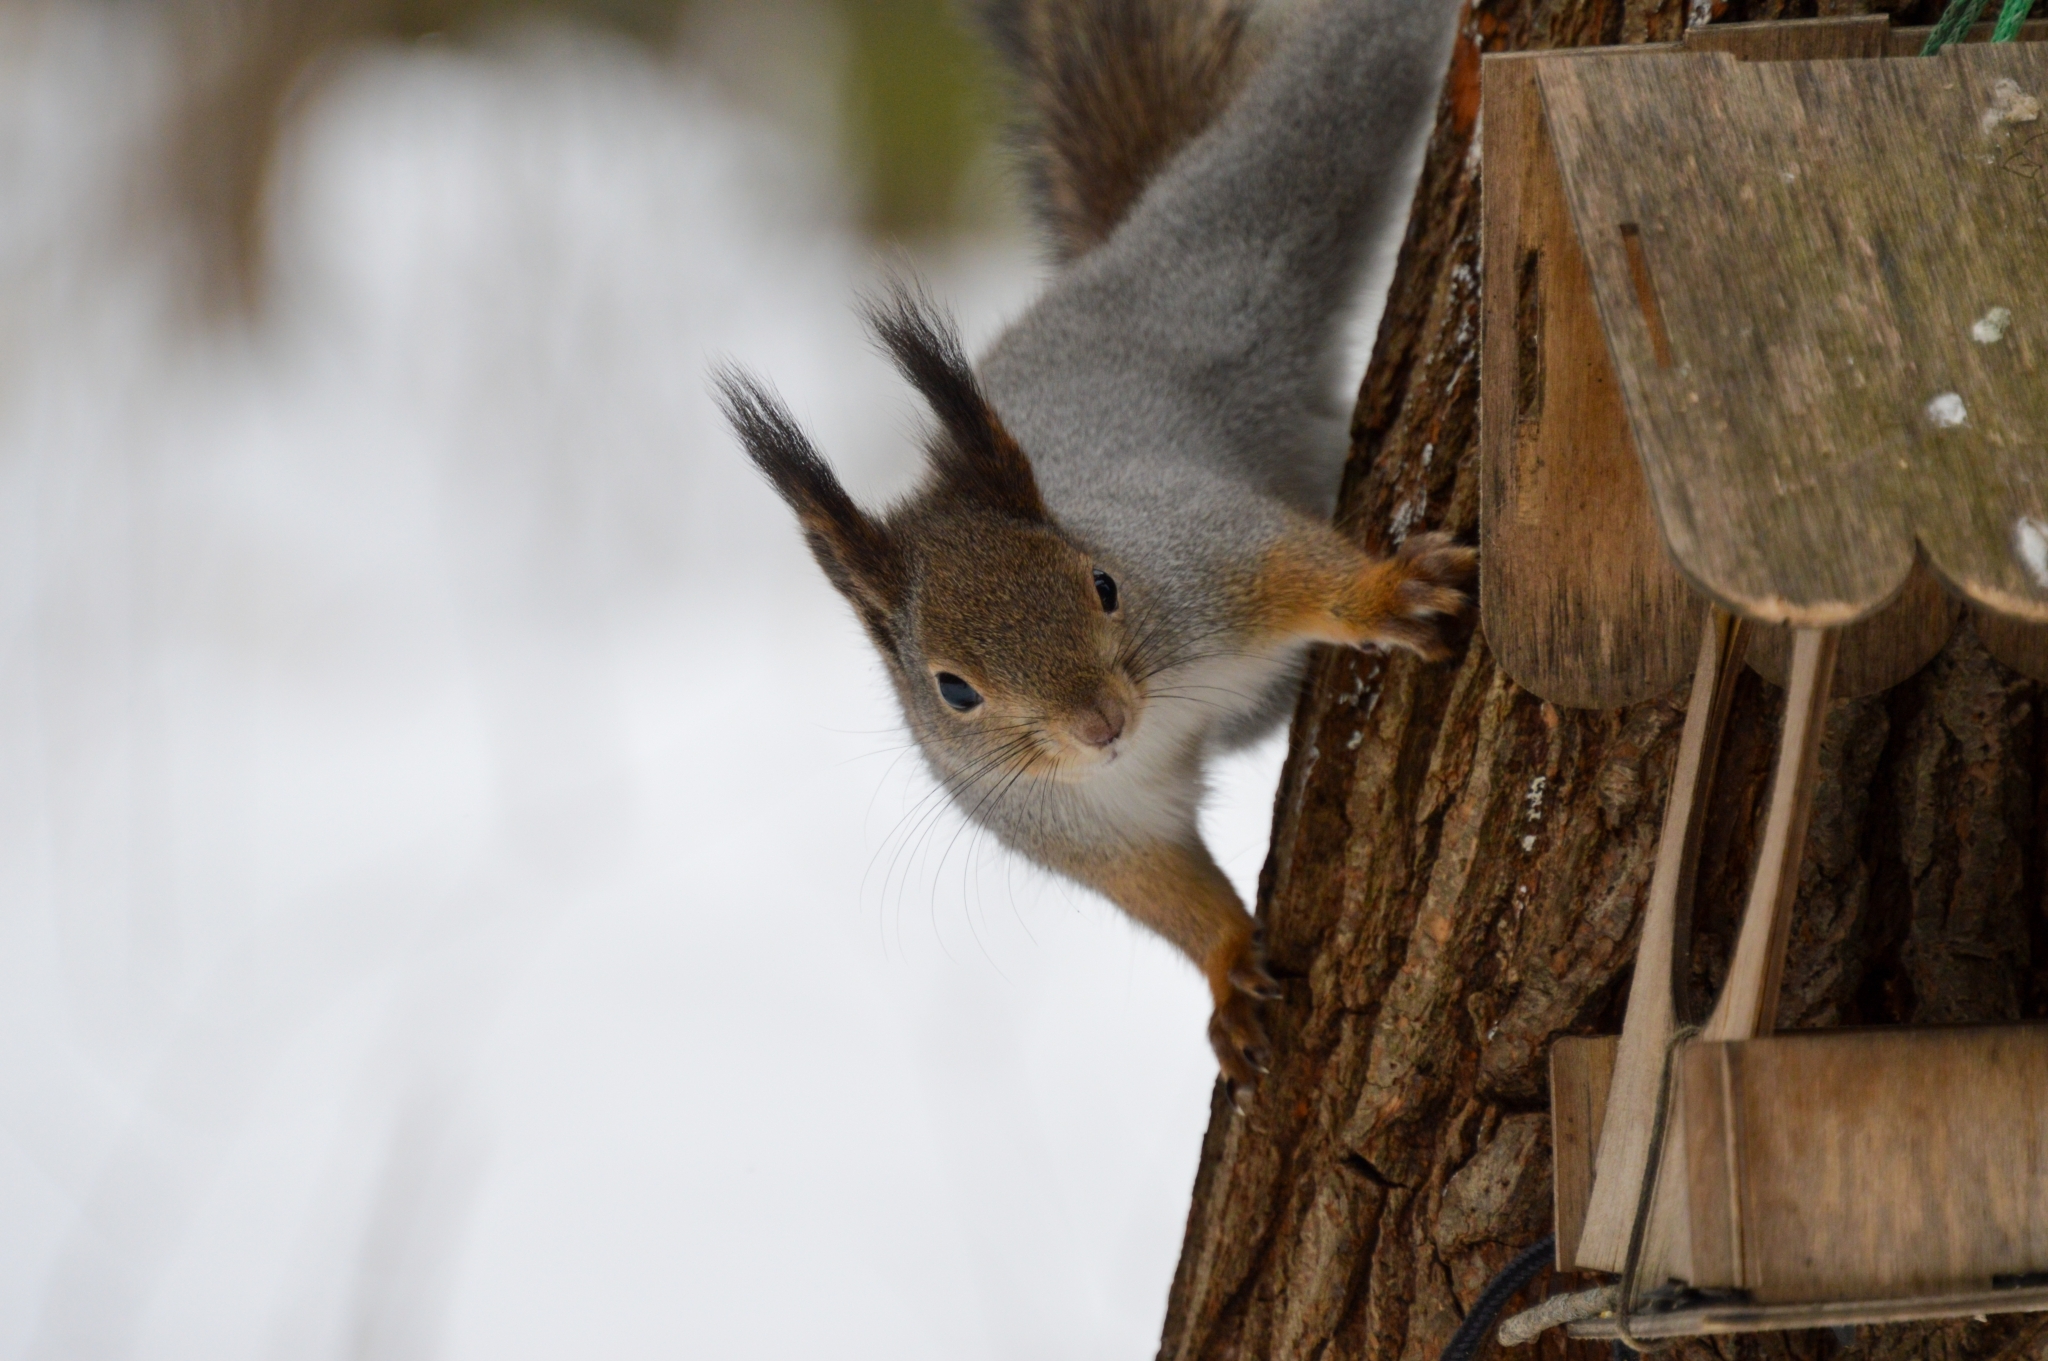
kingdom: Animalia
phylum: Chordata
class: Mammalia
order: Rodentia
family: Sciuridae
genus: Sciurus
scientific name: Sciurus vulgaris
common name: Eurasian red squirrel
